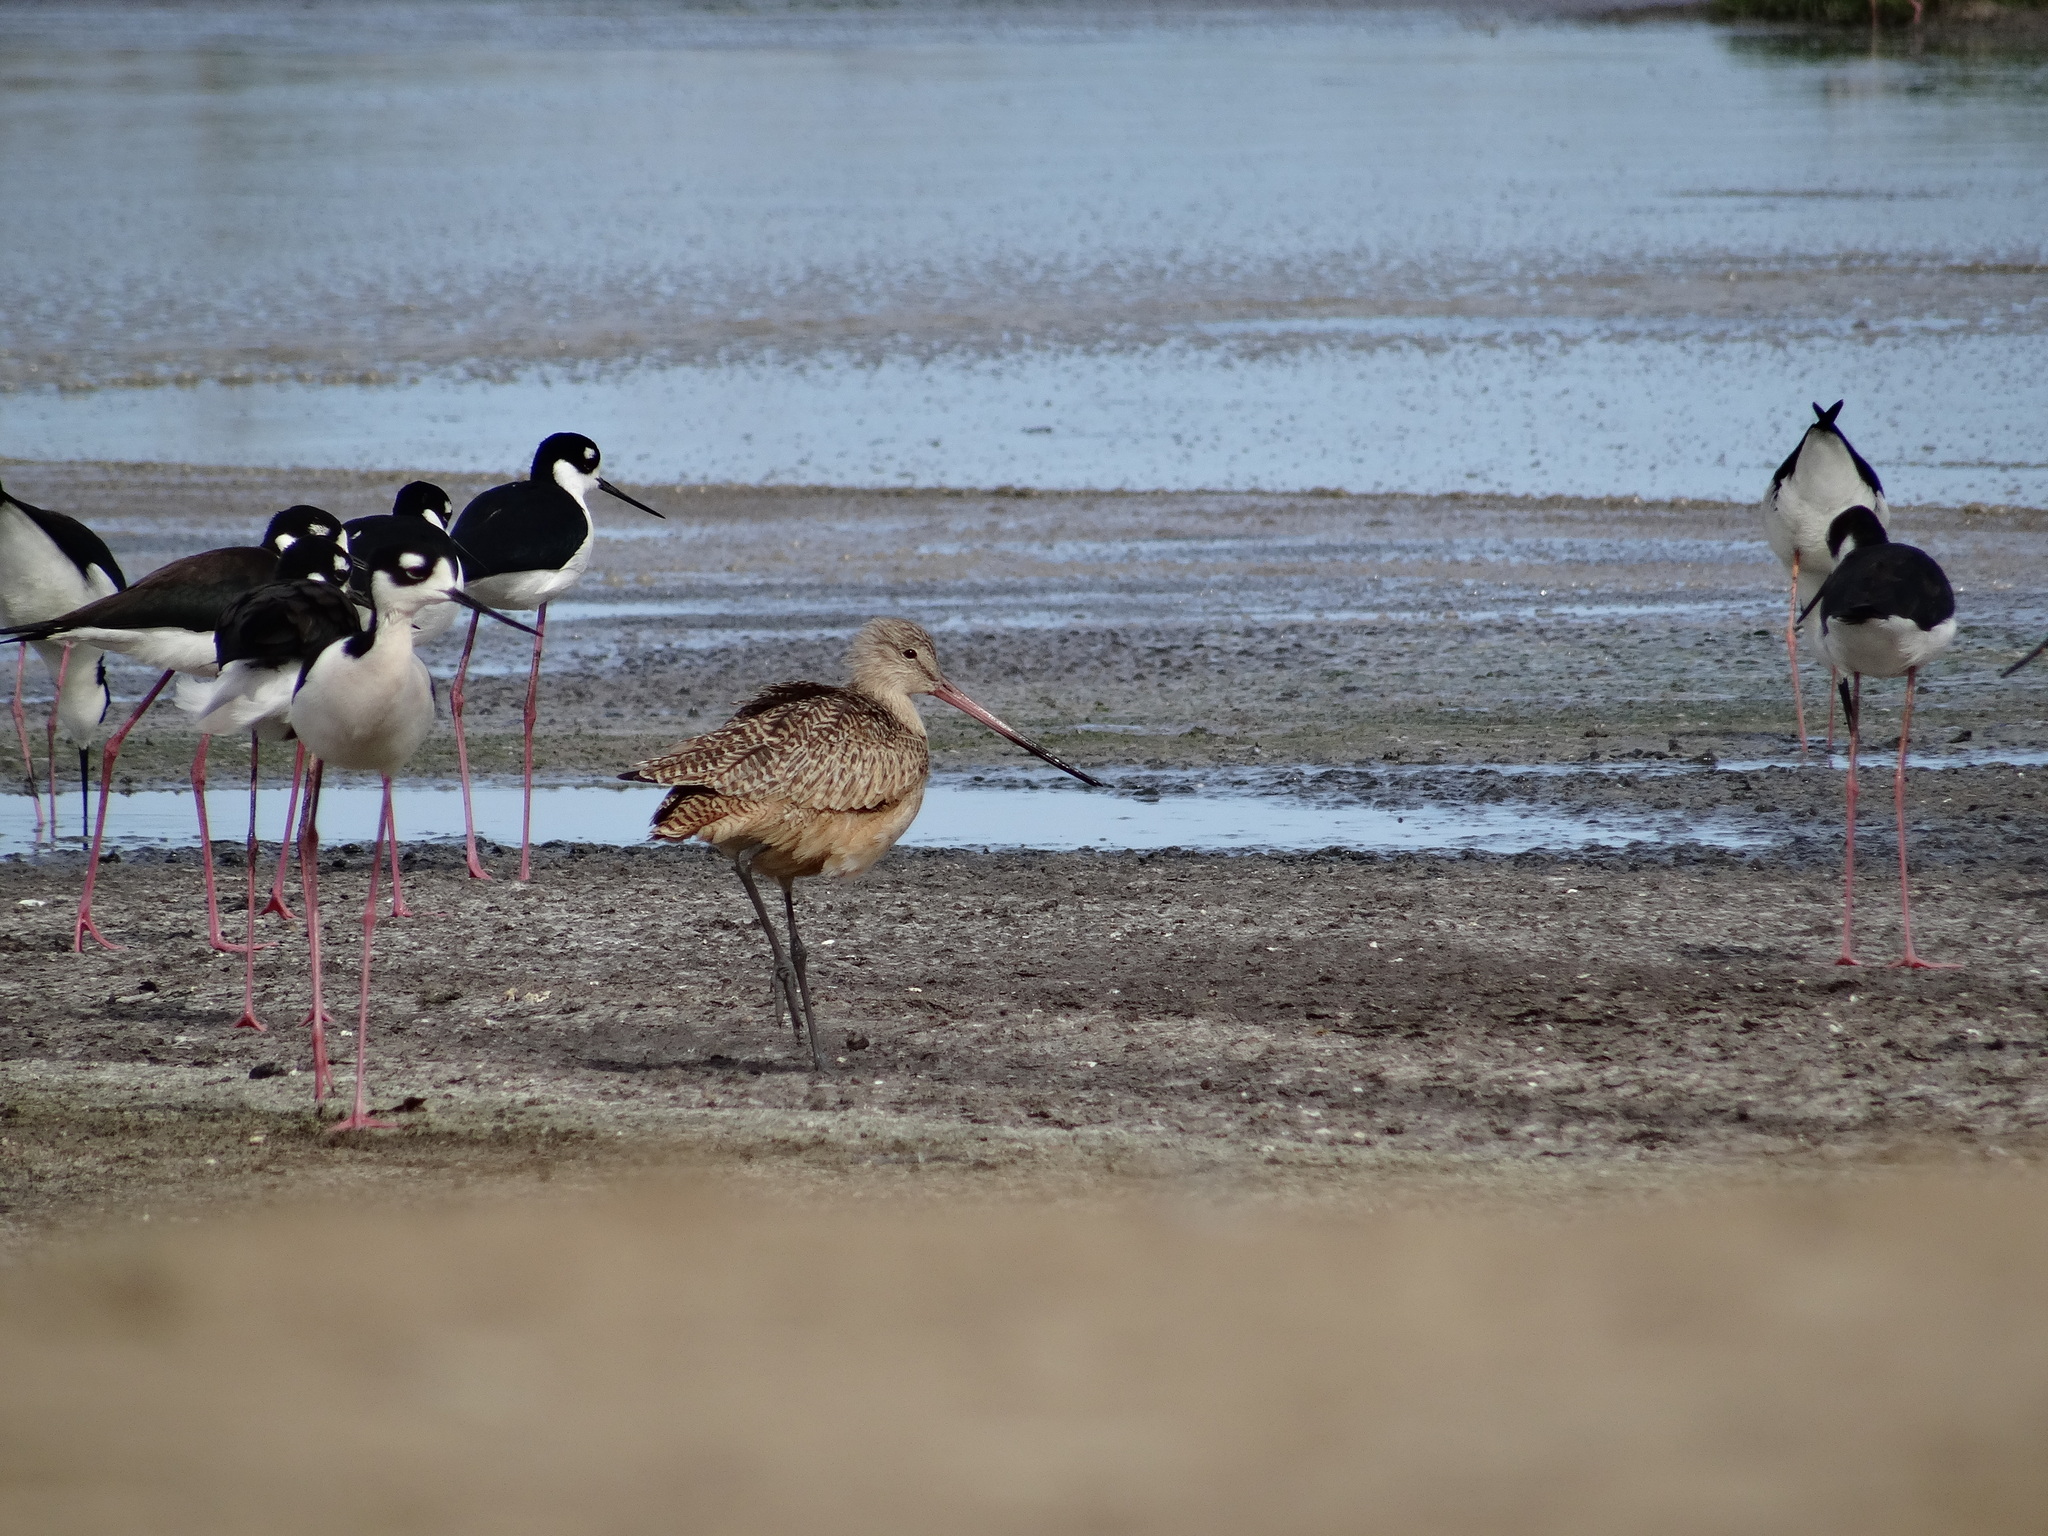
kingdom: Animalia
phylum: Chordata
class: Aves
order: Charadriiformes
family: Scolopacidae
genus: Limosa
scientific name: Limosa fedoa
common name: Marbled godwit
